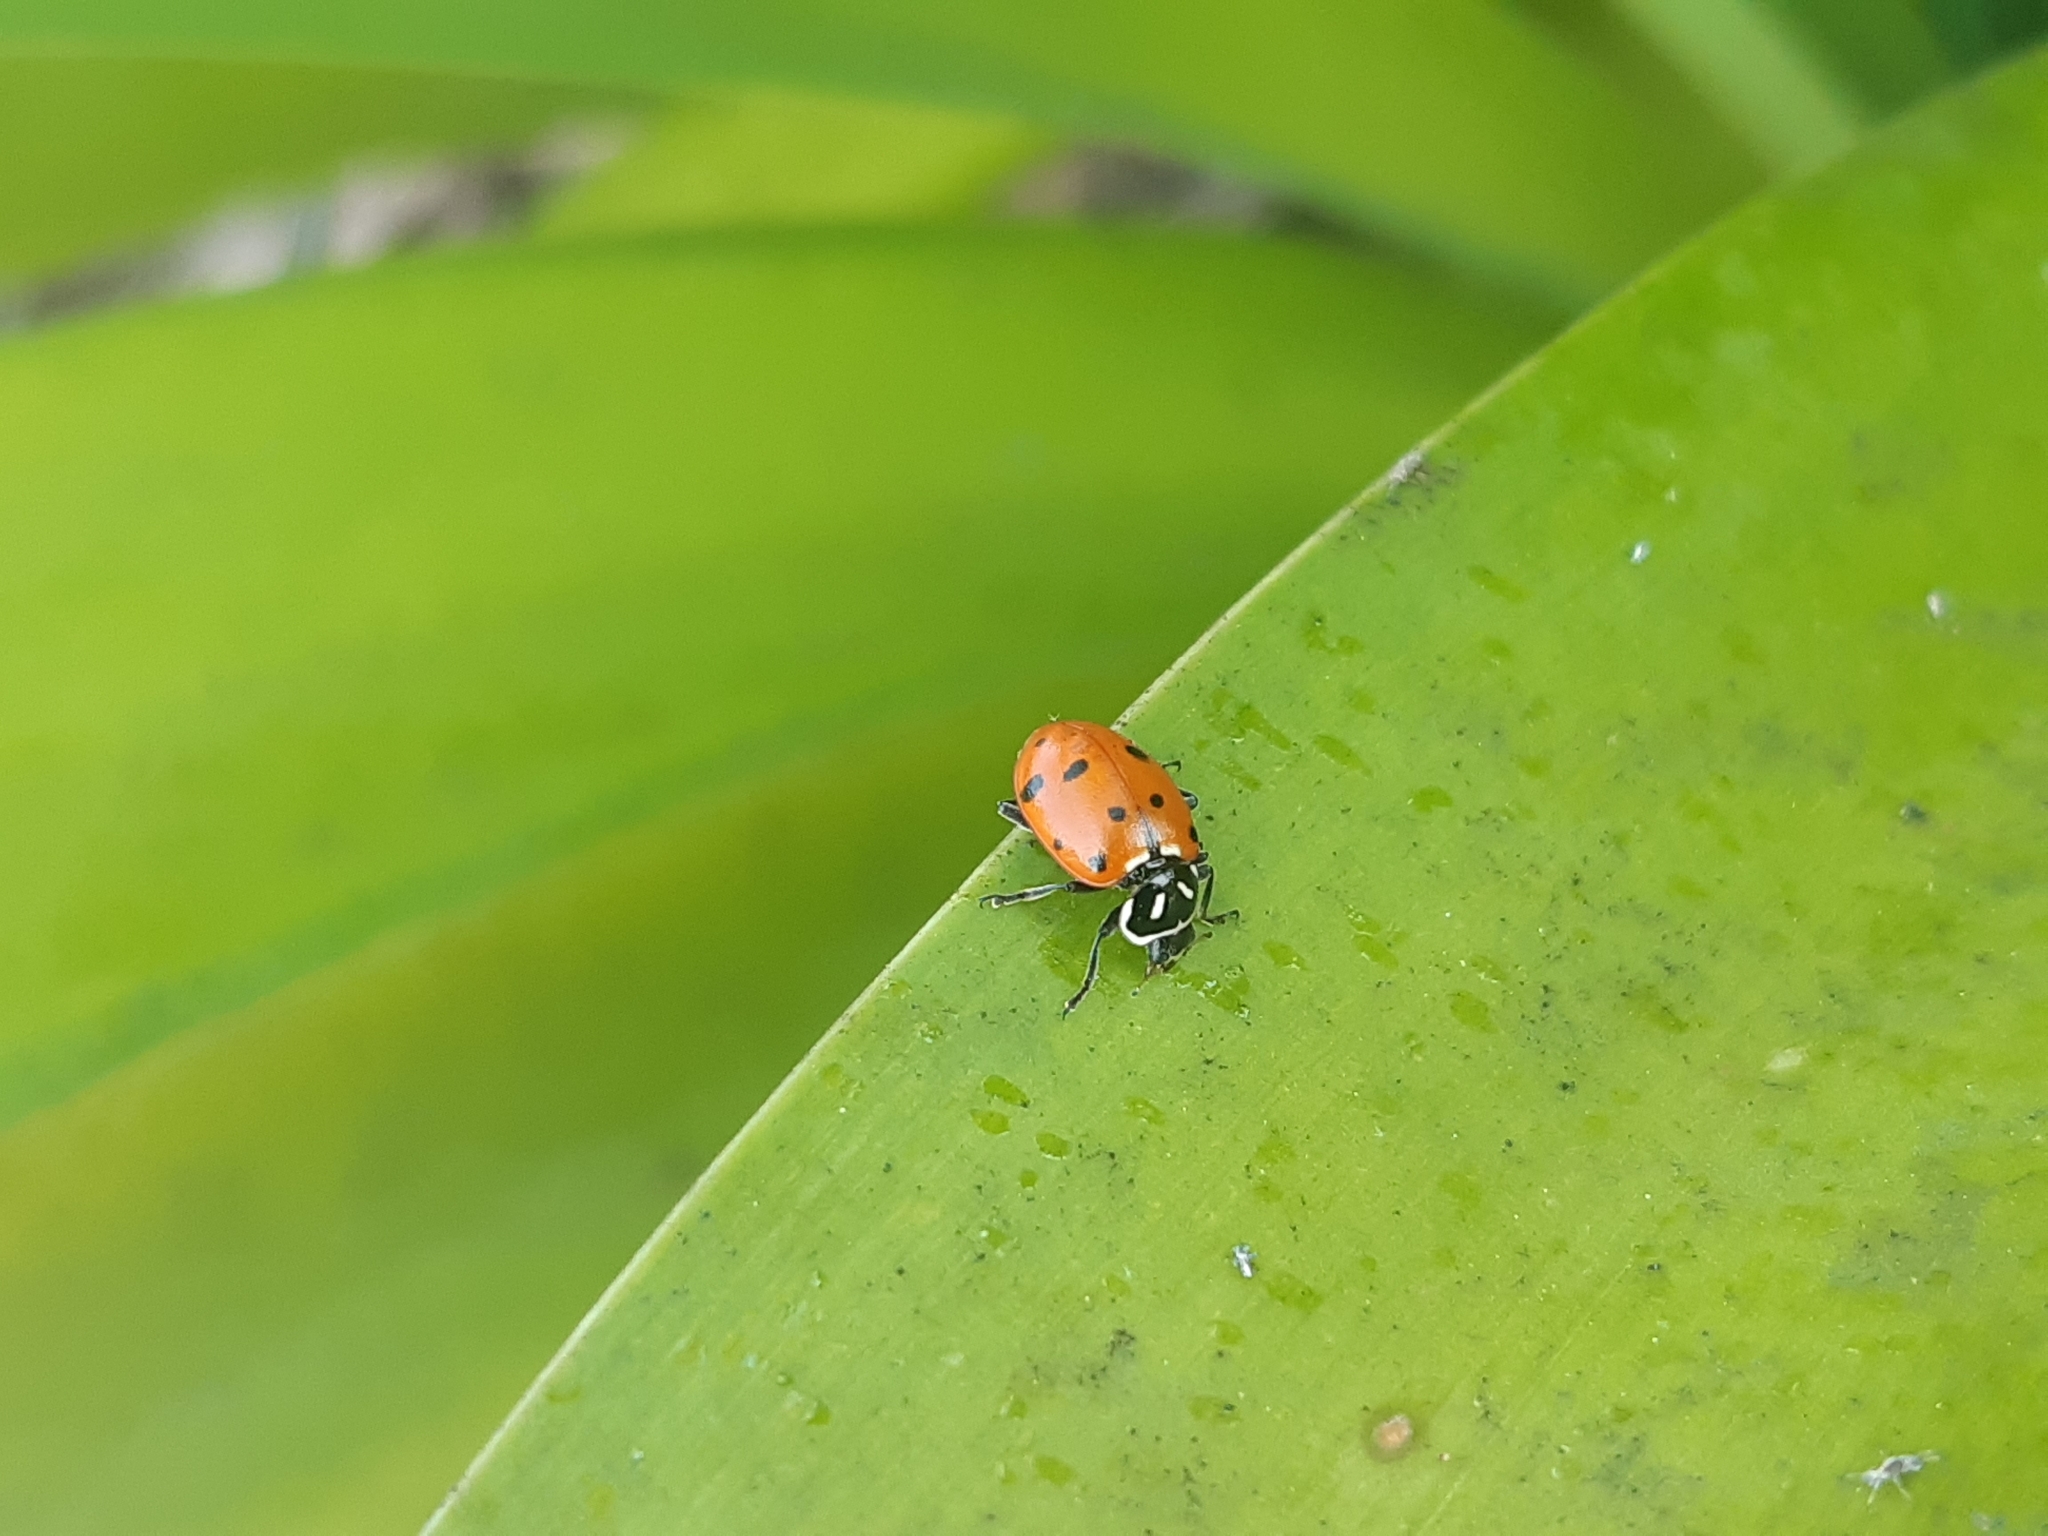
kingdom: Animalia
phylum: Arthropoda
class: Insecta
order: Coleoptera
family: Coccinellidae
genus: Hippodamia
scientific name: Hippodamia convergens
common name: Convergent lady beetle
